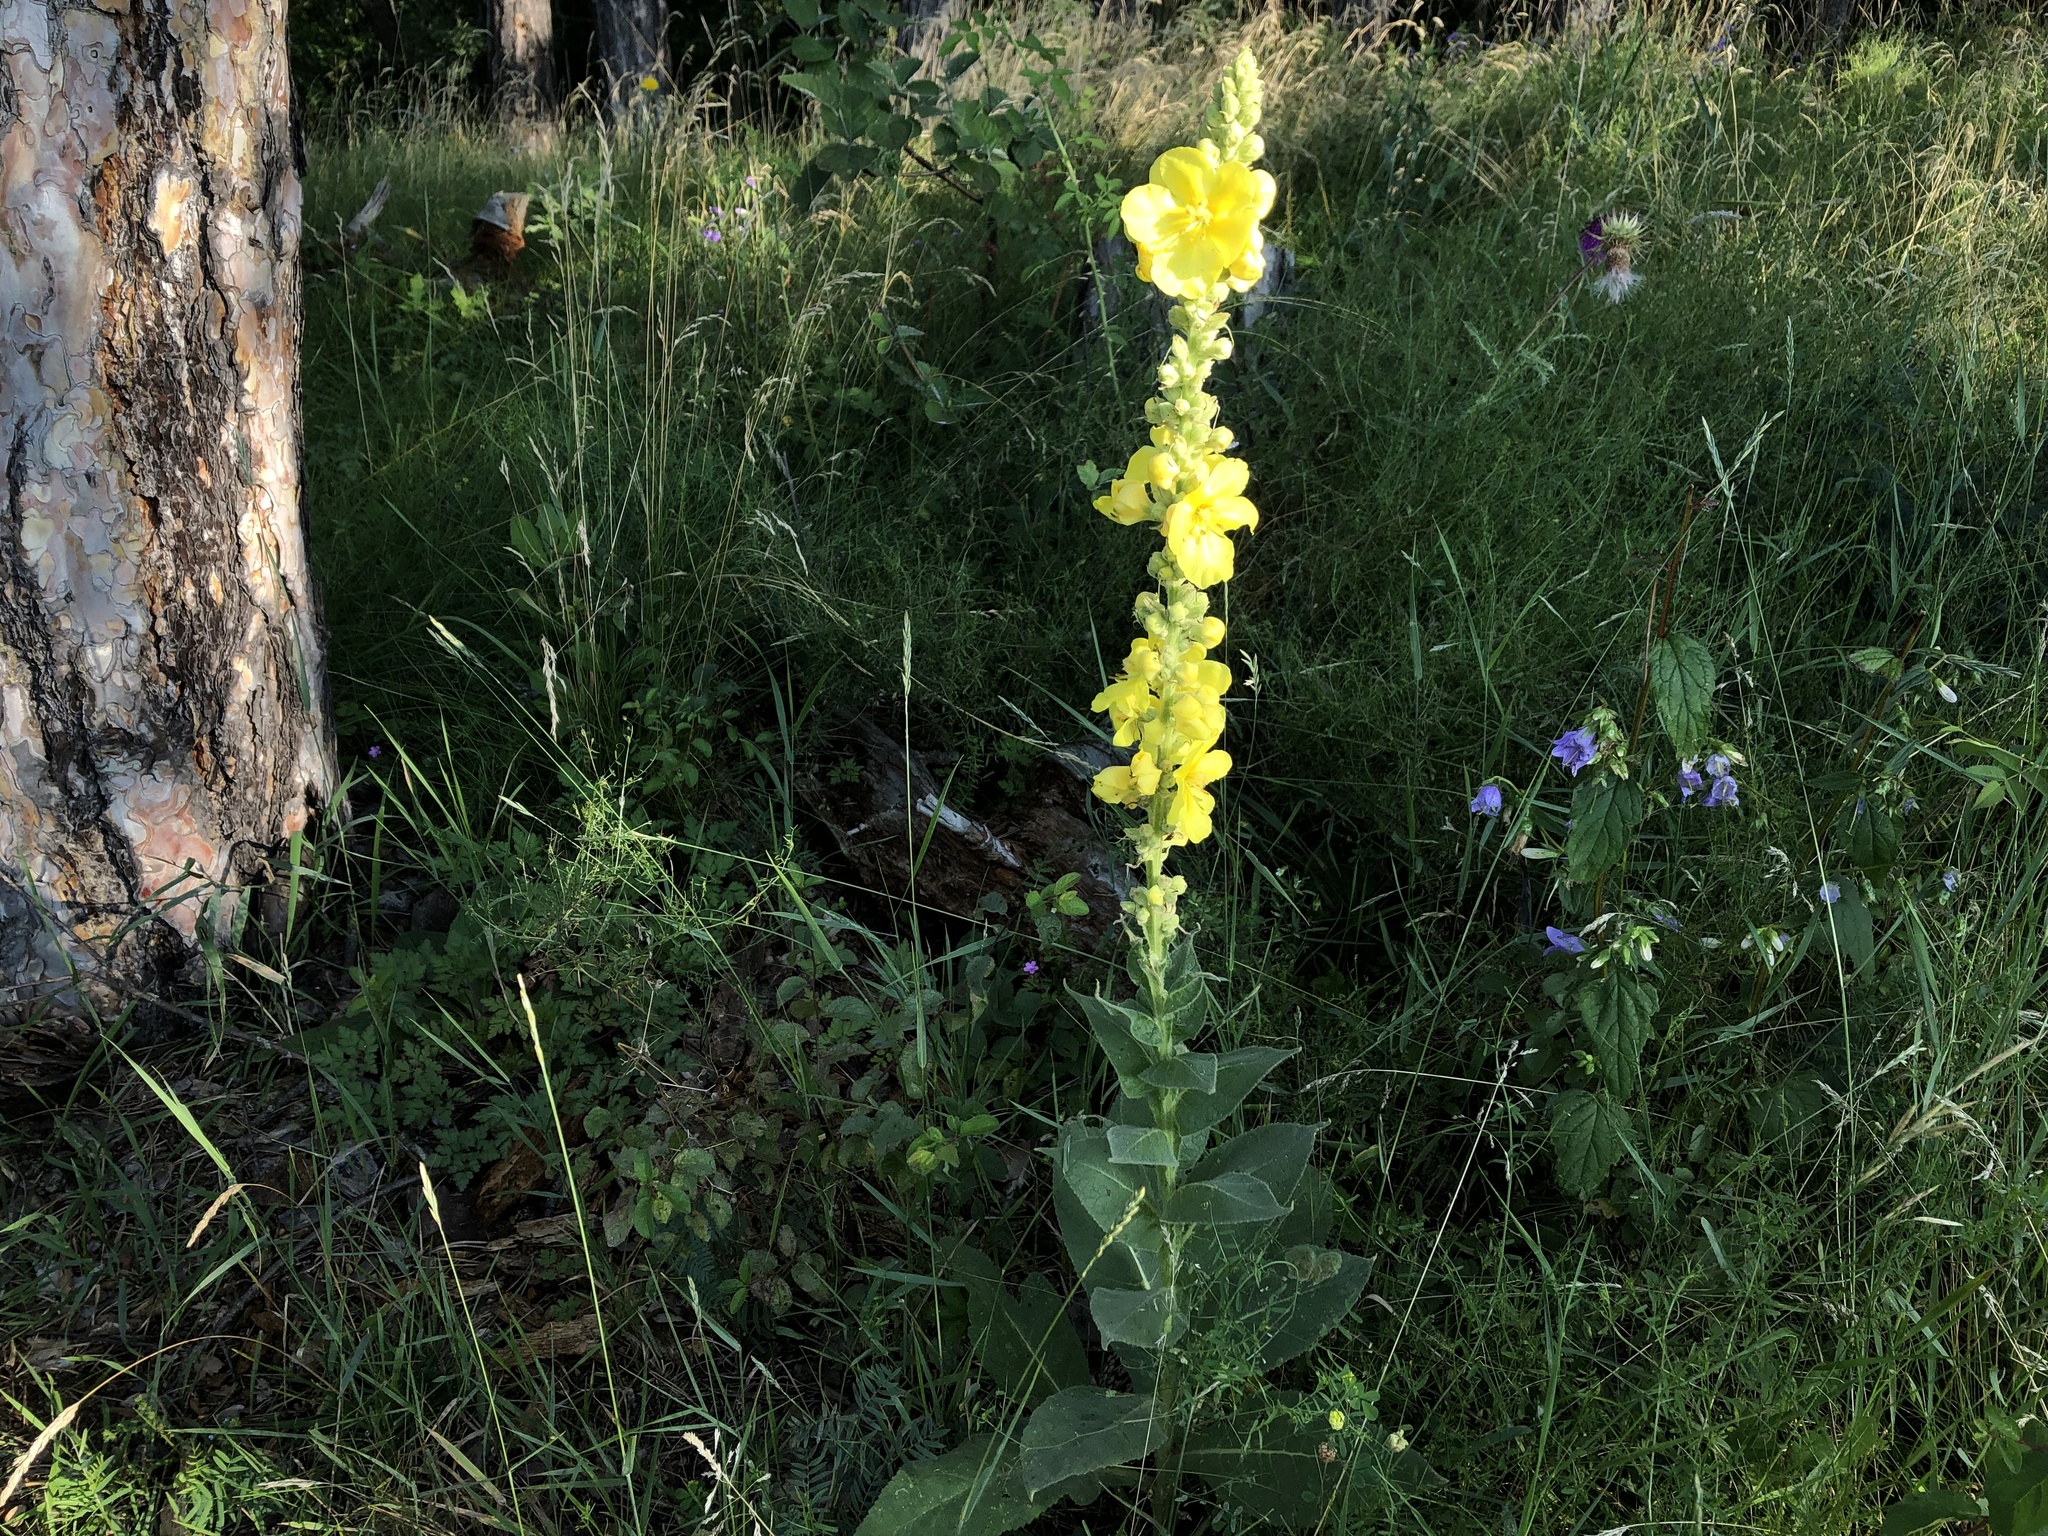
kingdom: Plantae
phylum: Tracheophyta
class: Magnoliopsida
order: Lamiales
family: Scrophulariaceae
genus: Verbascum
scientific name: Verbascum densiflorum
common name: Dense-flowered mullein
